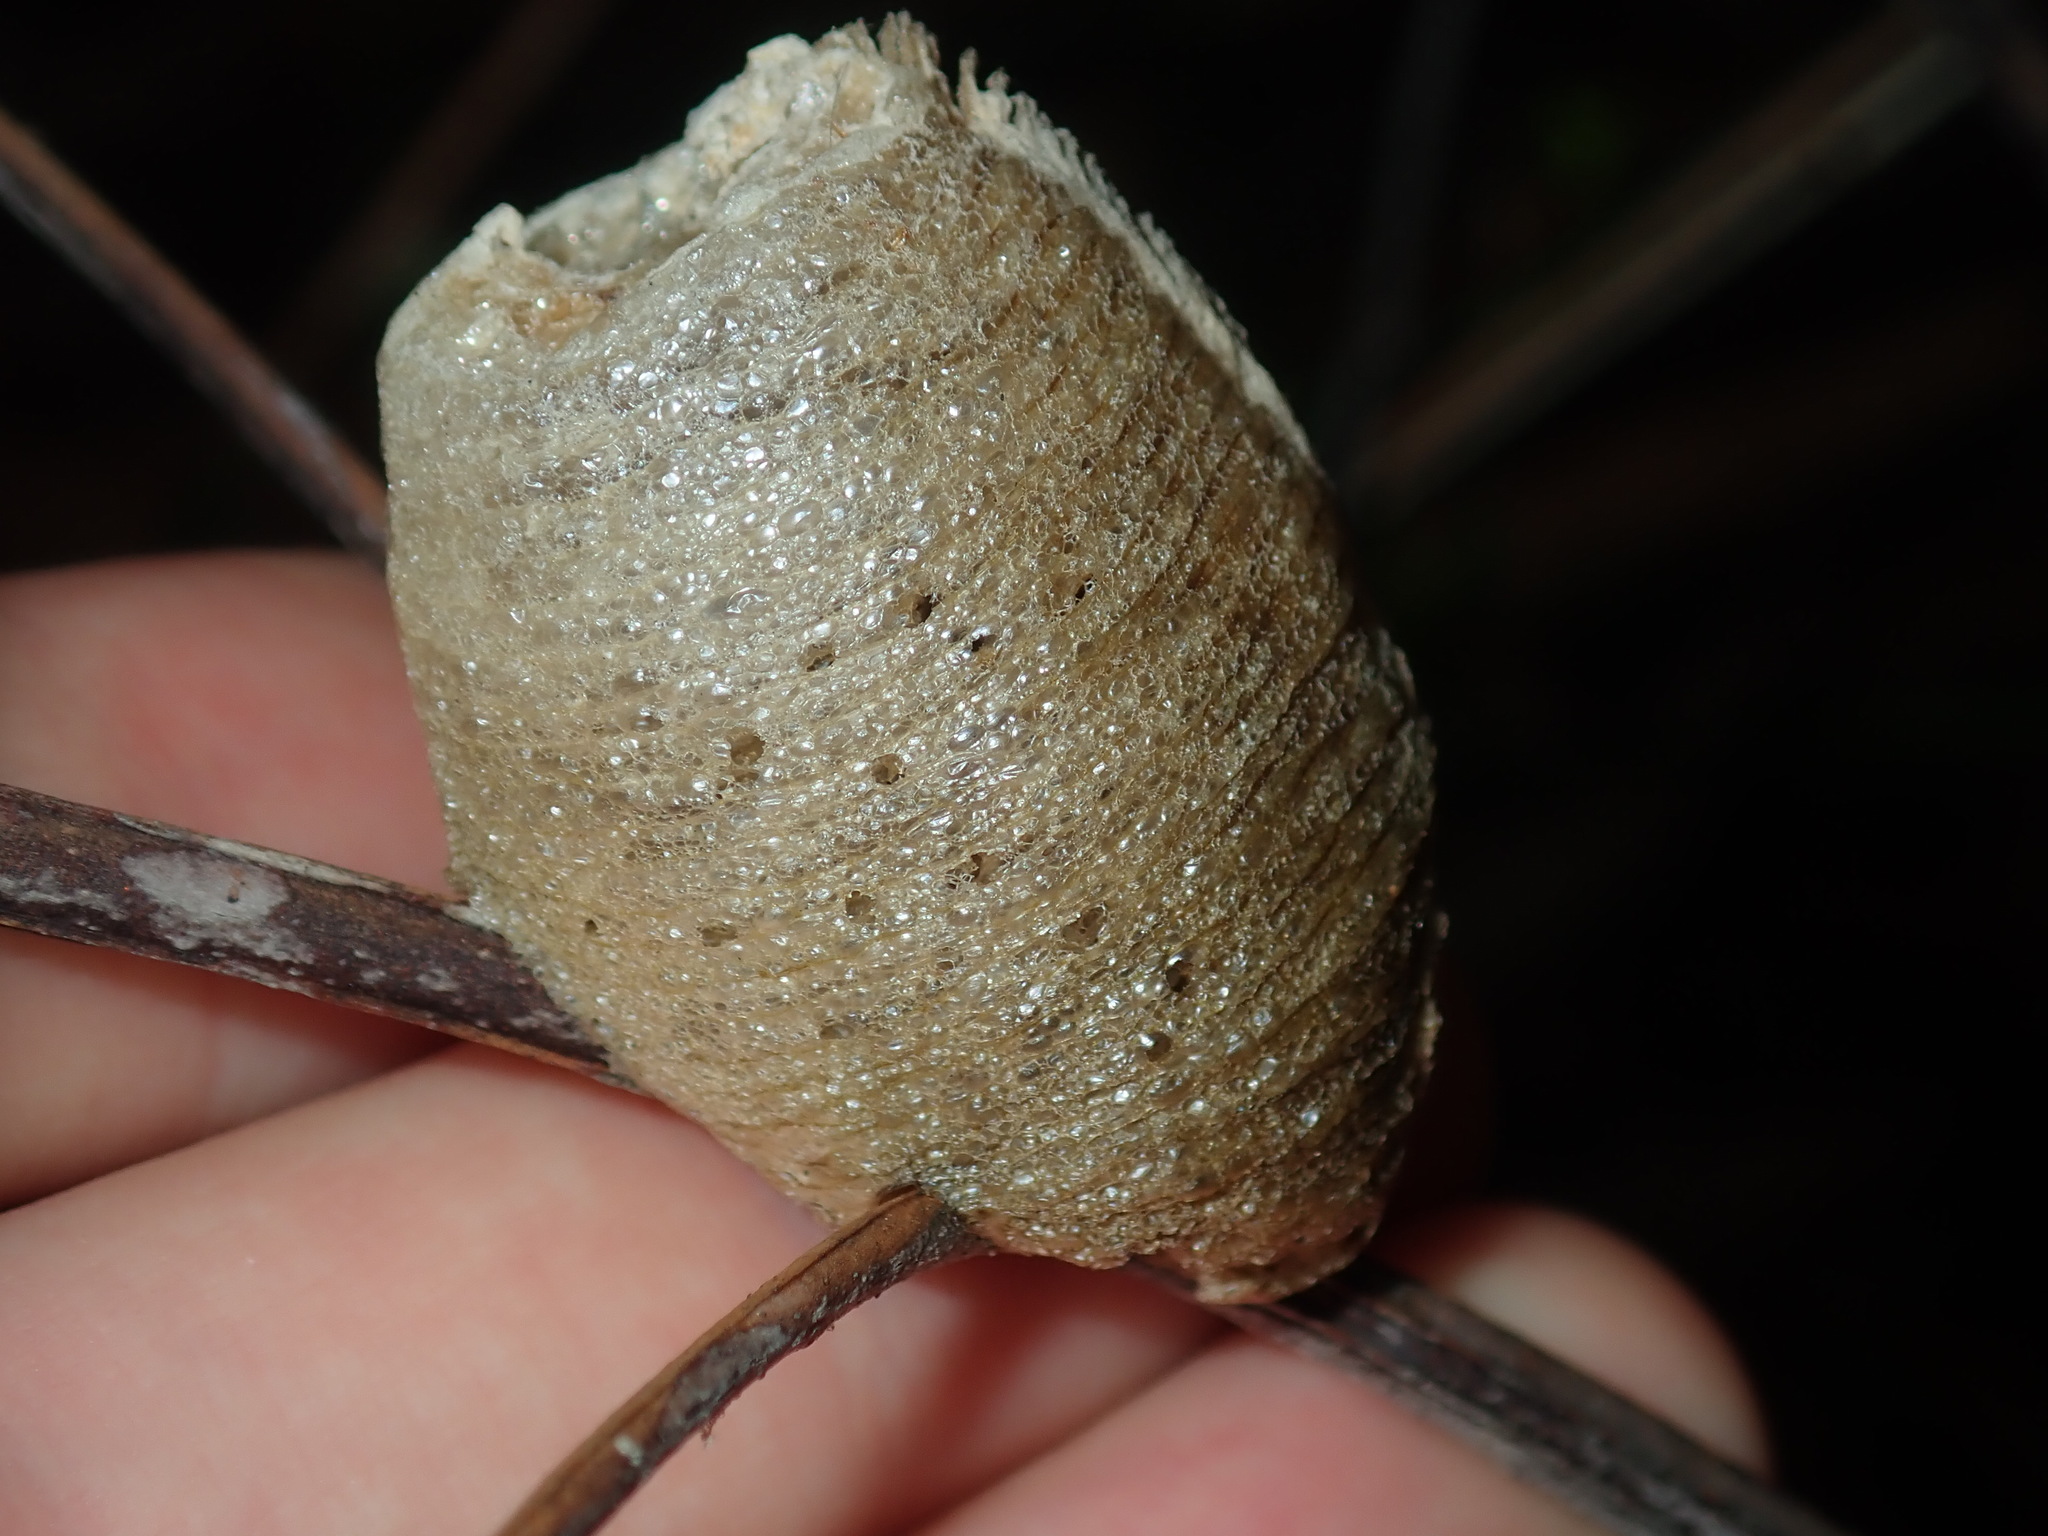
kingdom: Animalia
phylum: Arthropoda
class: Insecta
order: Mantodea
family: Mantidae
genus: Archimantis
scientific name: Archimantis latistyla
